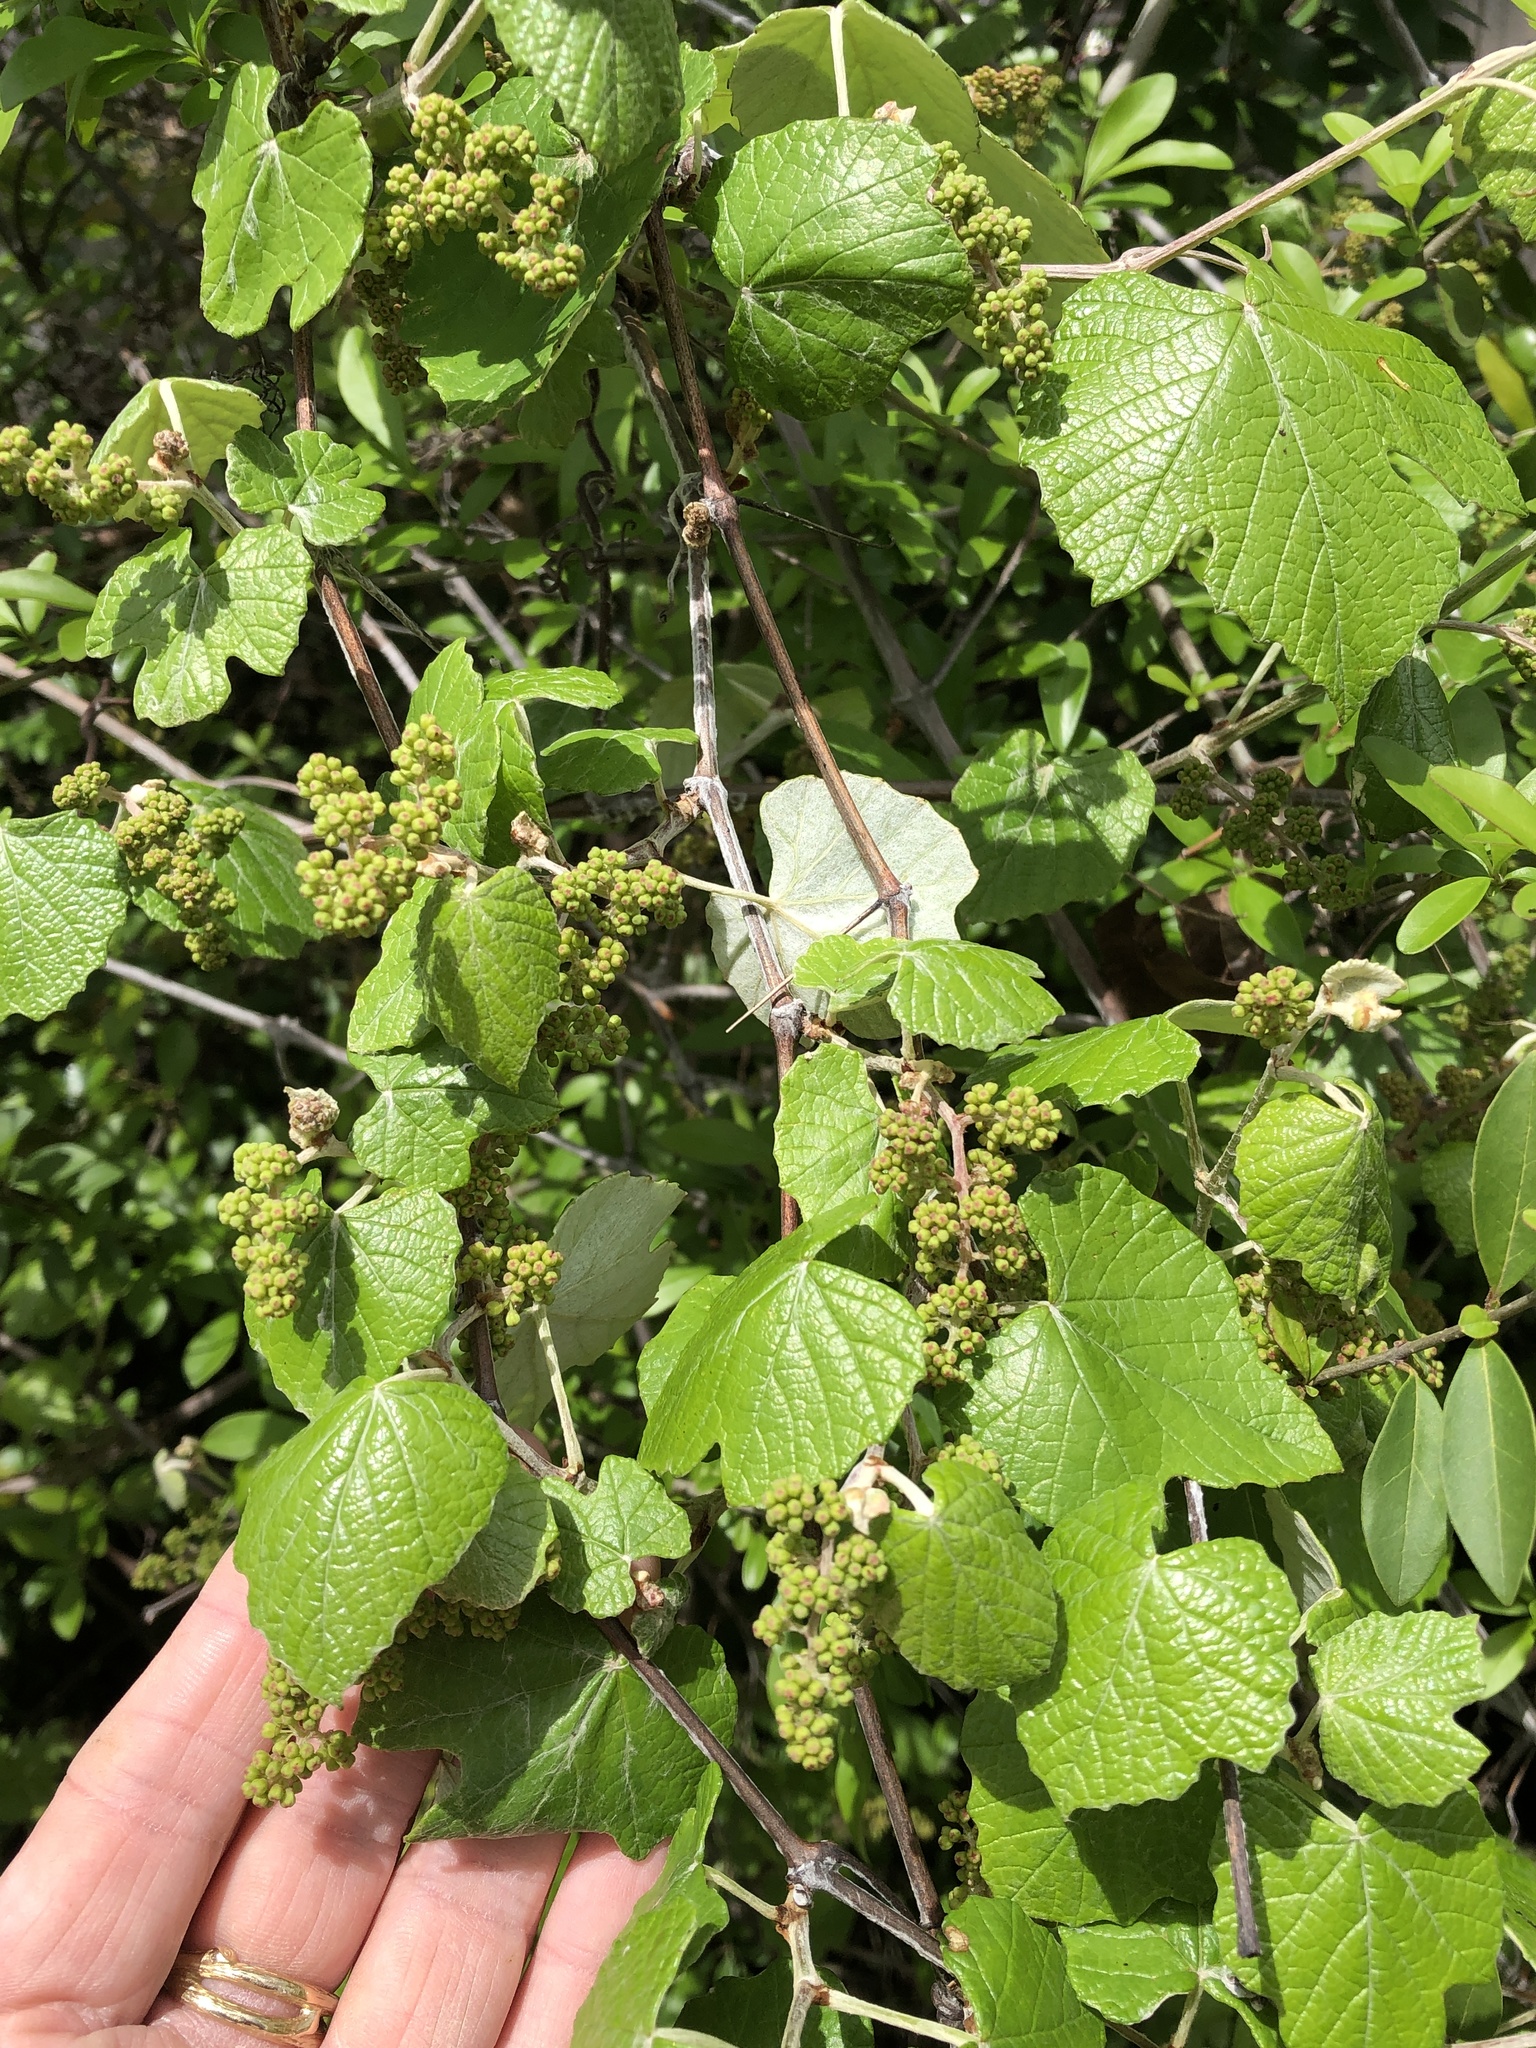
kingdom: Plantae
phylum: Tracheophyta
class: Magnoliopsida
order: Vitales
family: Vitaceae
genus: Vitis
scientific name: Vitis mustangensis
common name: Mustang grape
